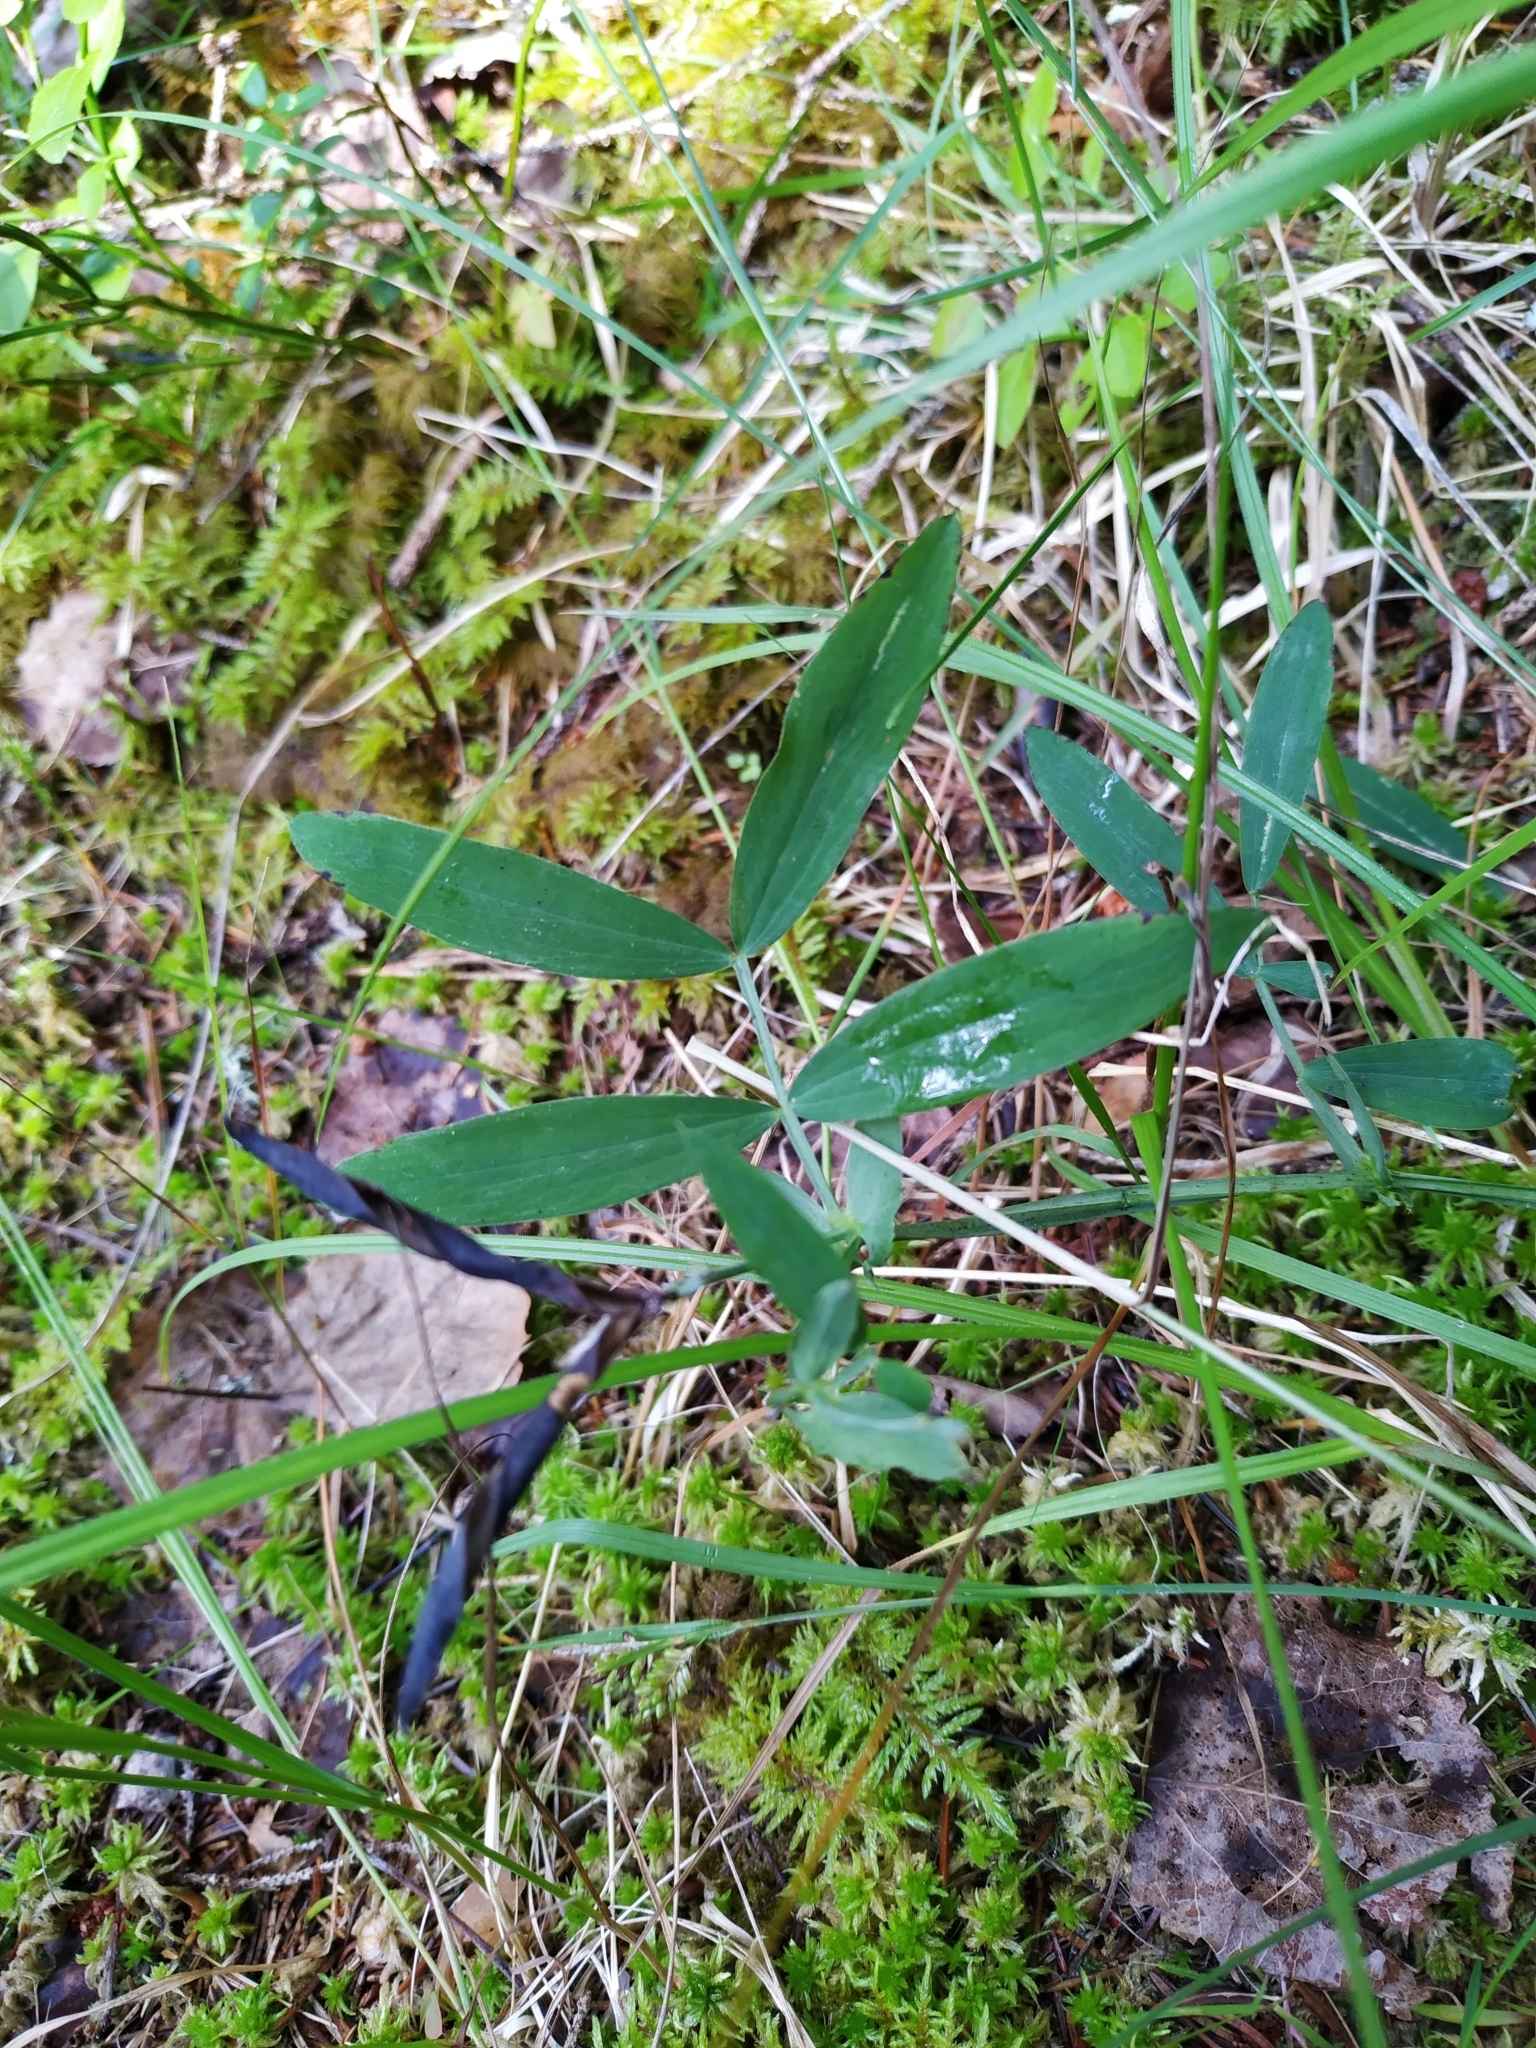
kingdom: Plantae
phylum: Tracheophyta
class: Magnoliopsida
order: Fabales
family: Fabaceae
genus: Lathyrus
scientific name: Lathyrus linifolius
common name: Bitter-vetch
